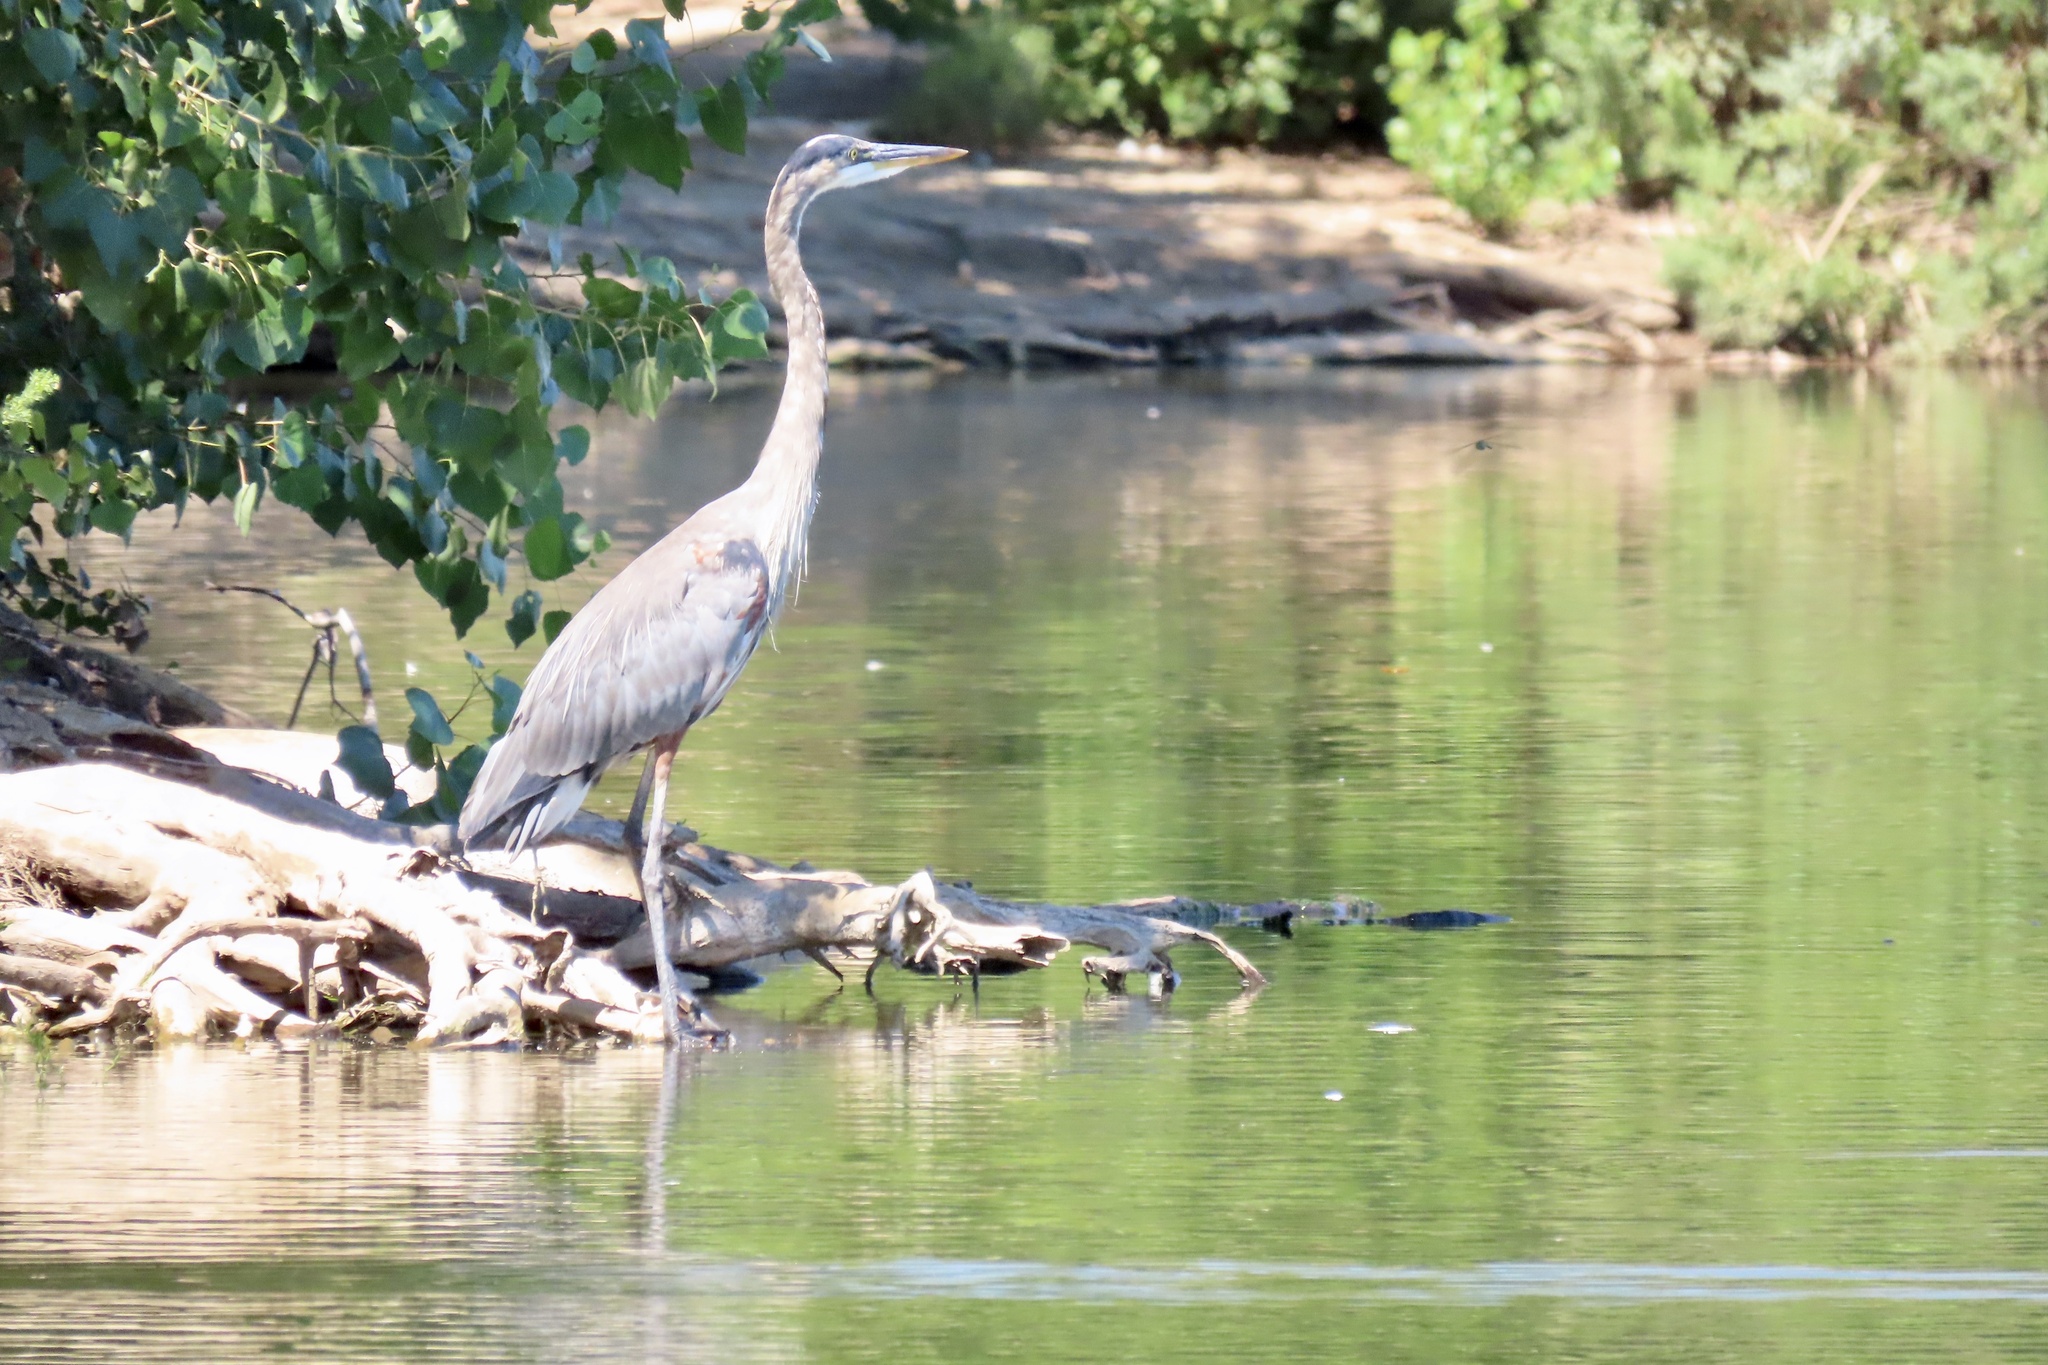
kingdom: Animalia
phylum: Chordata
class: Aves
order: Pelecaniformes
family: Ardeidae
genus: Ardea
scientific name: Ardea herodias
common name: Great blue heron
